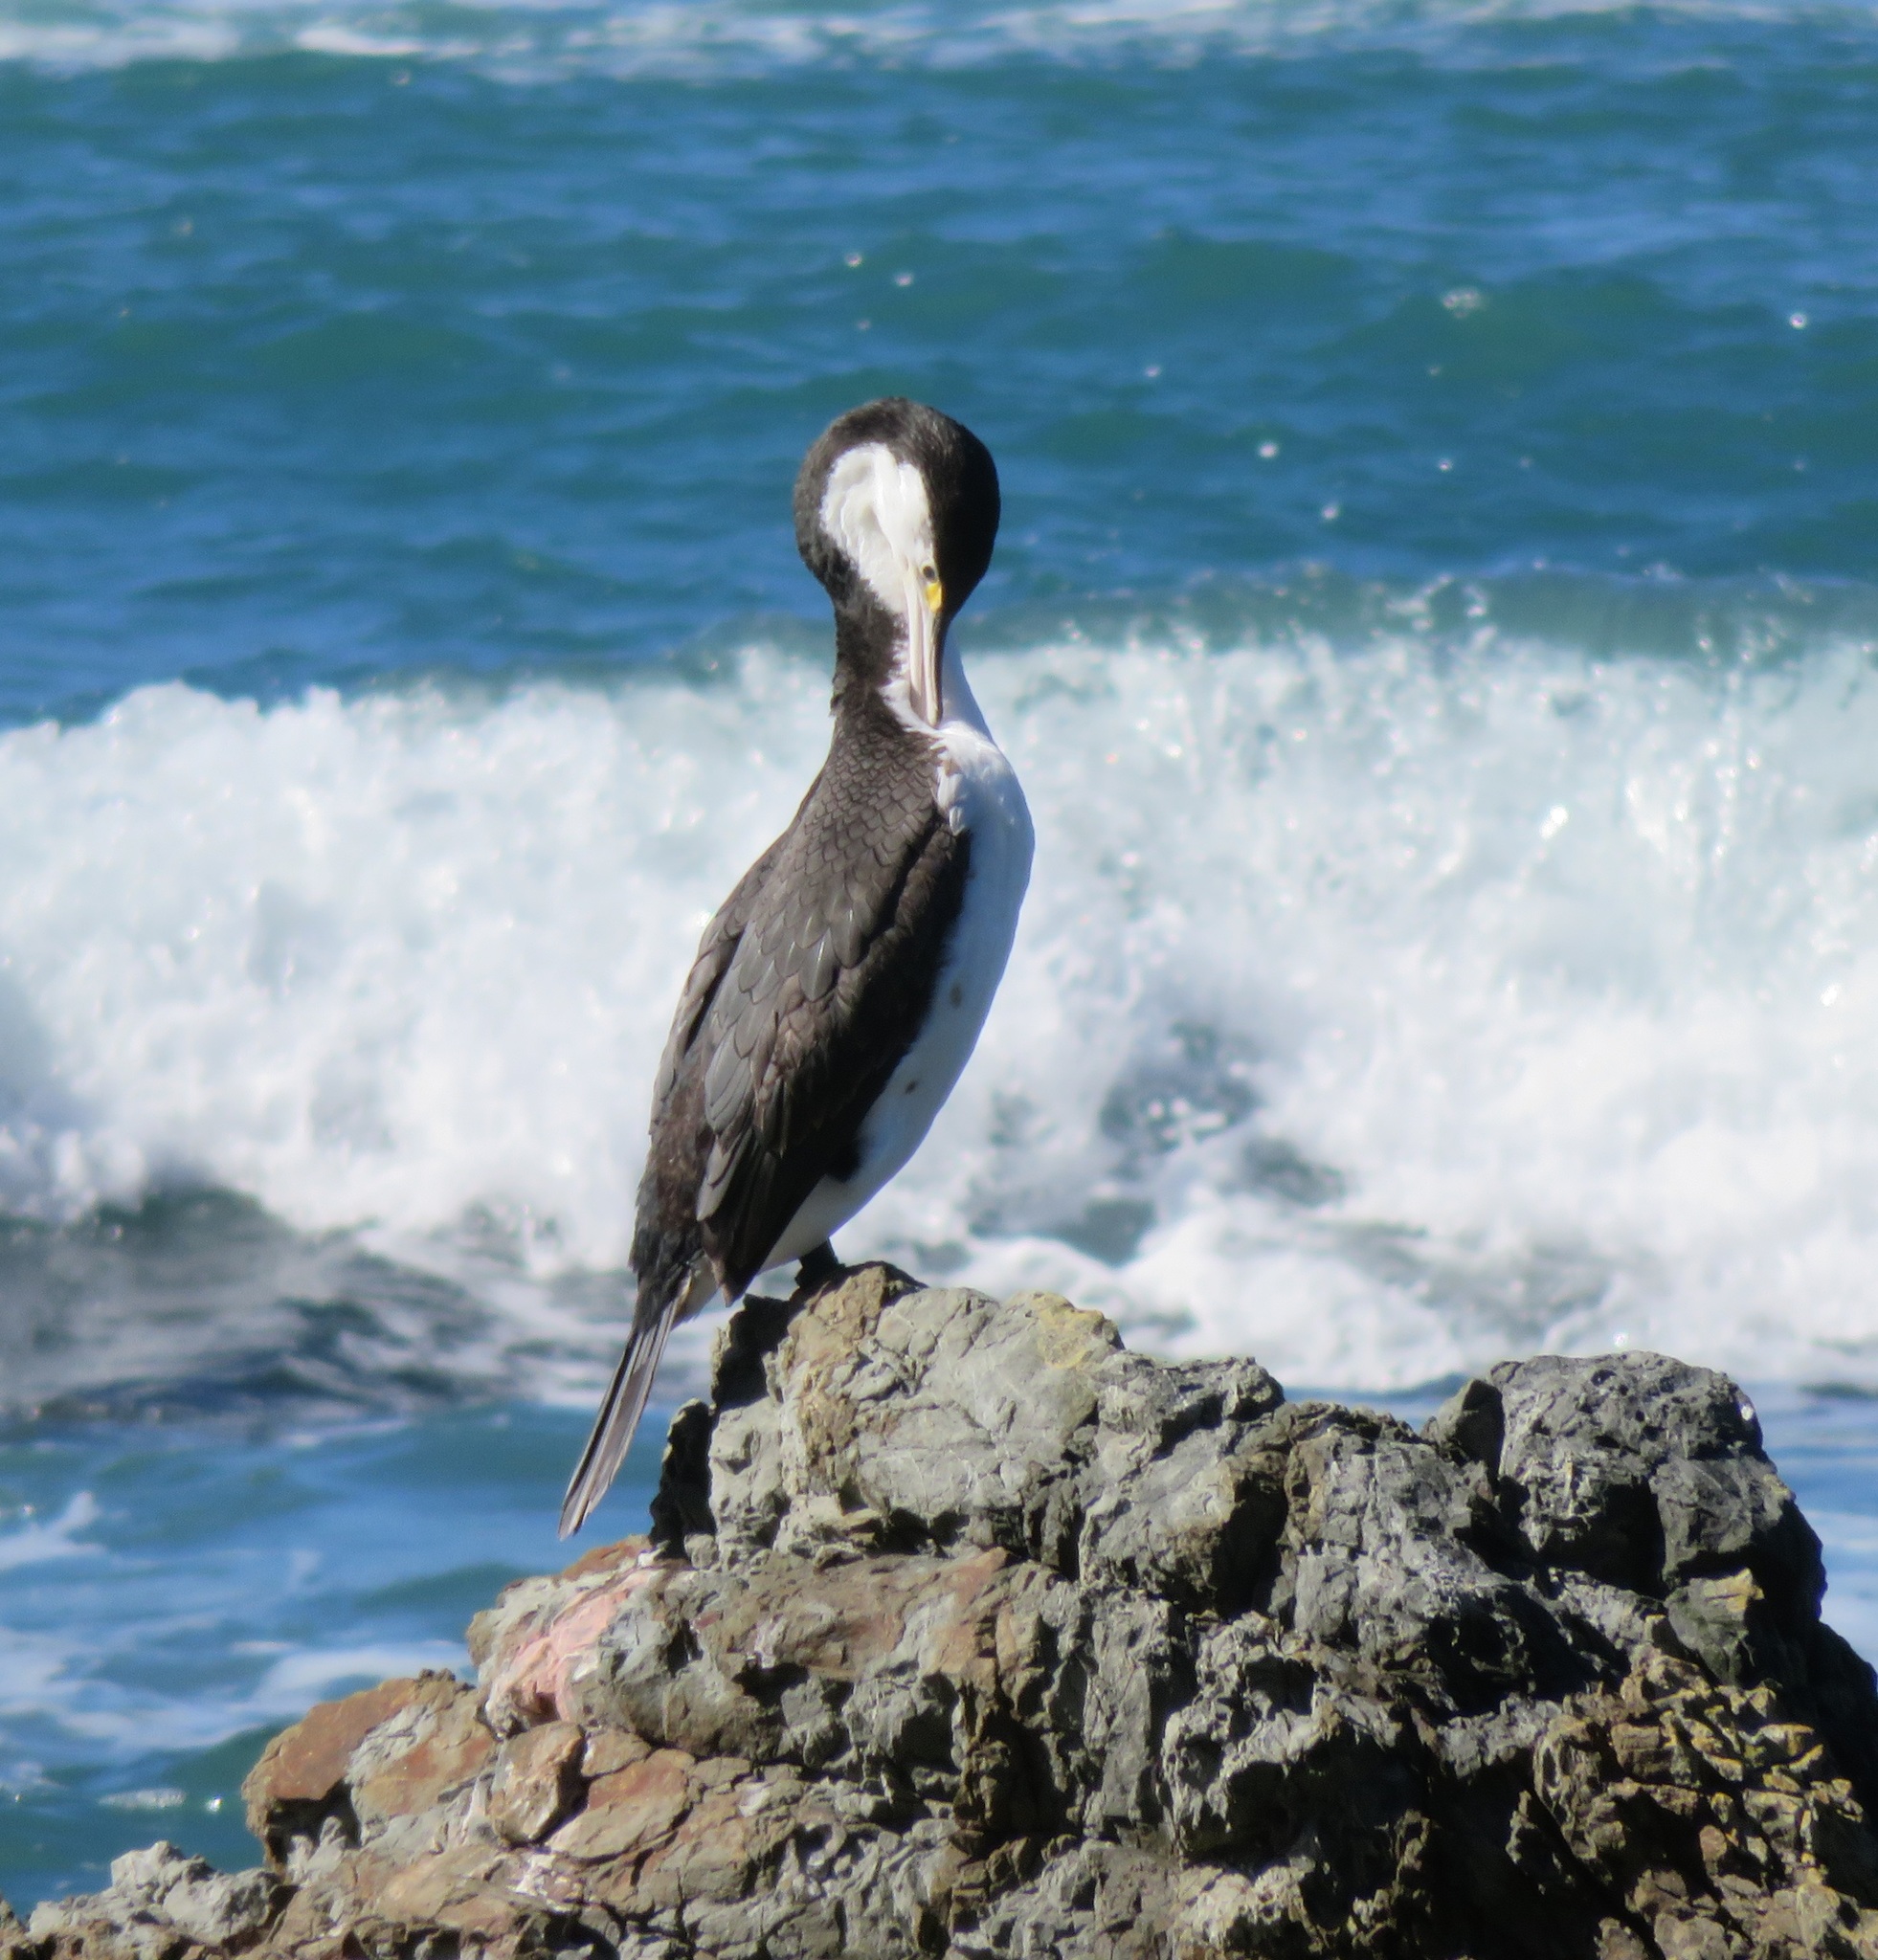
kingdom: Animalia
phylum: Chordata
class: Aves
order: Suliformes
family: Phalacrocoracidae
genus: Phalacrocorax
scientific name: Phalacrocorax varius
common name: Pied cormorant
